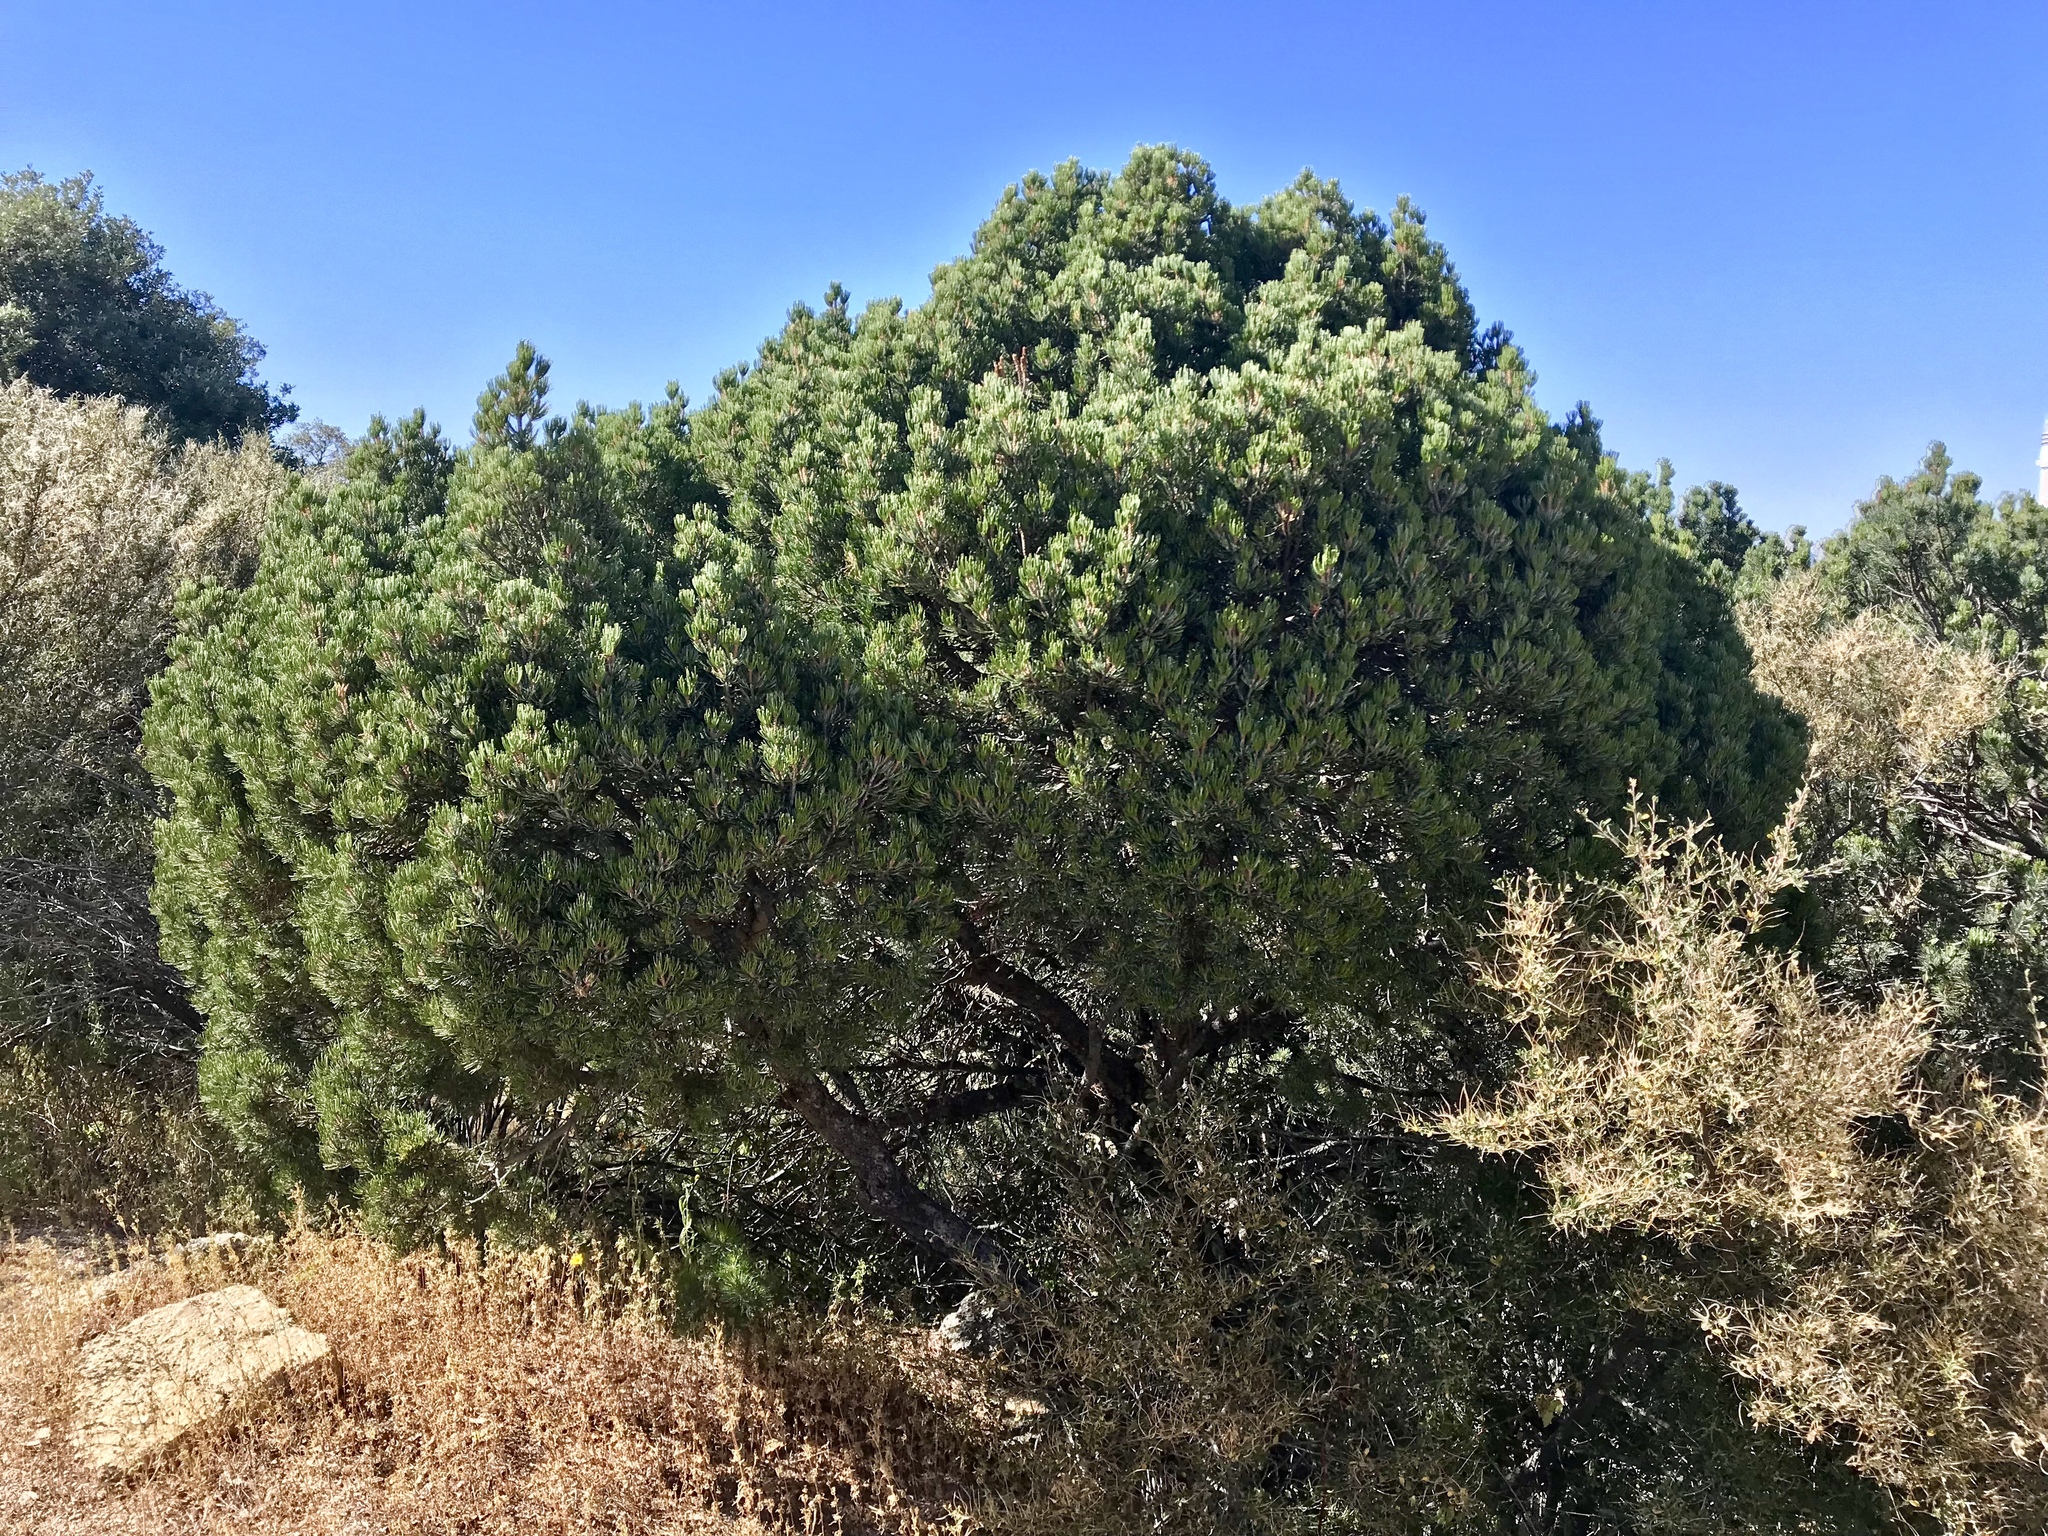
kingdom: Plantae
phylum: Tracheophyta
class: Pinopsida
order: Pinales
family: Pinaceae
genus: Pinus
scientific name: Pinus discolor
